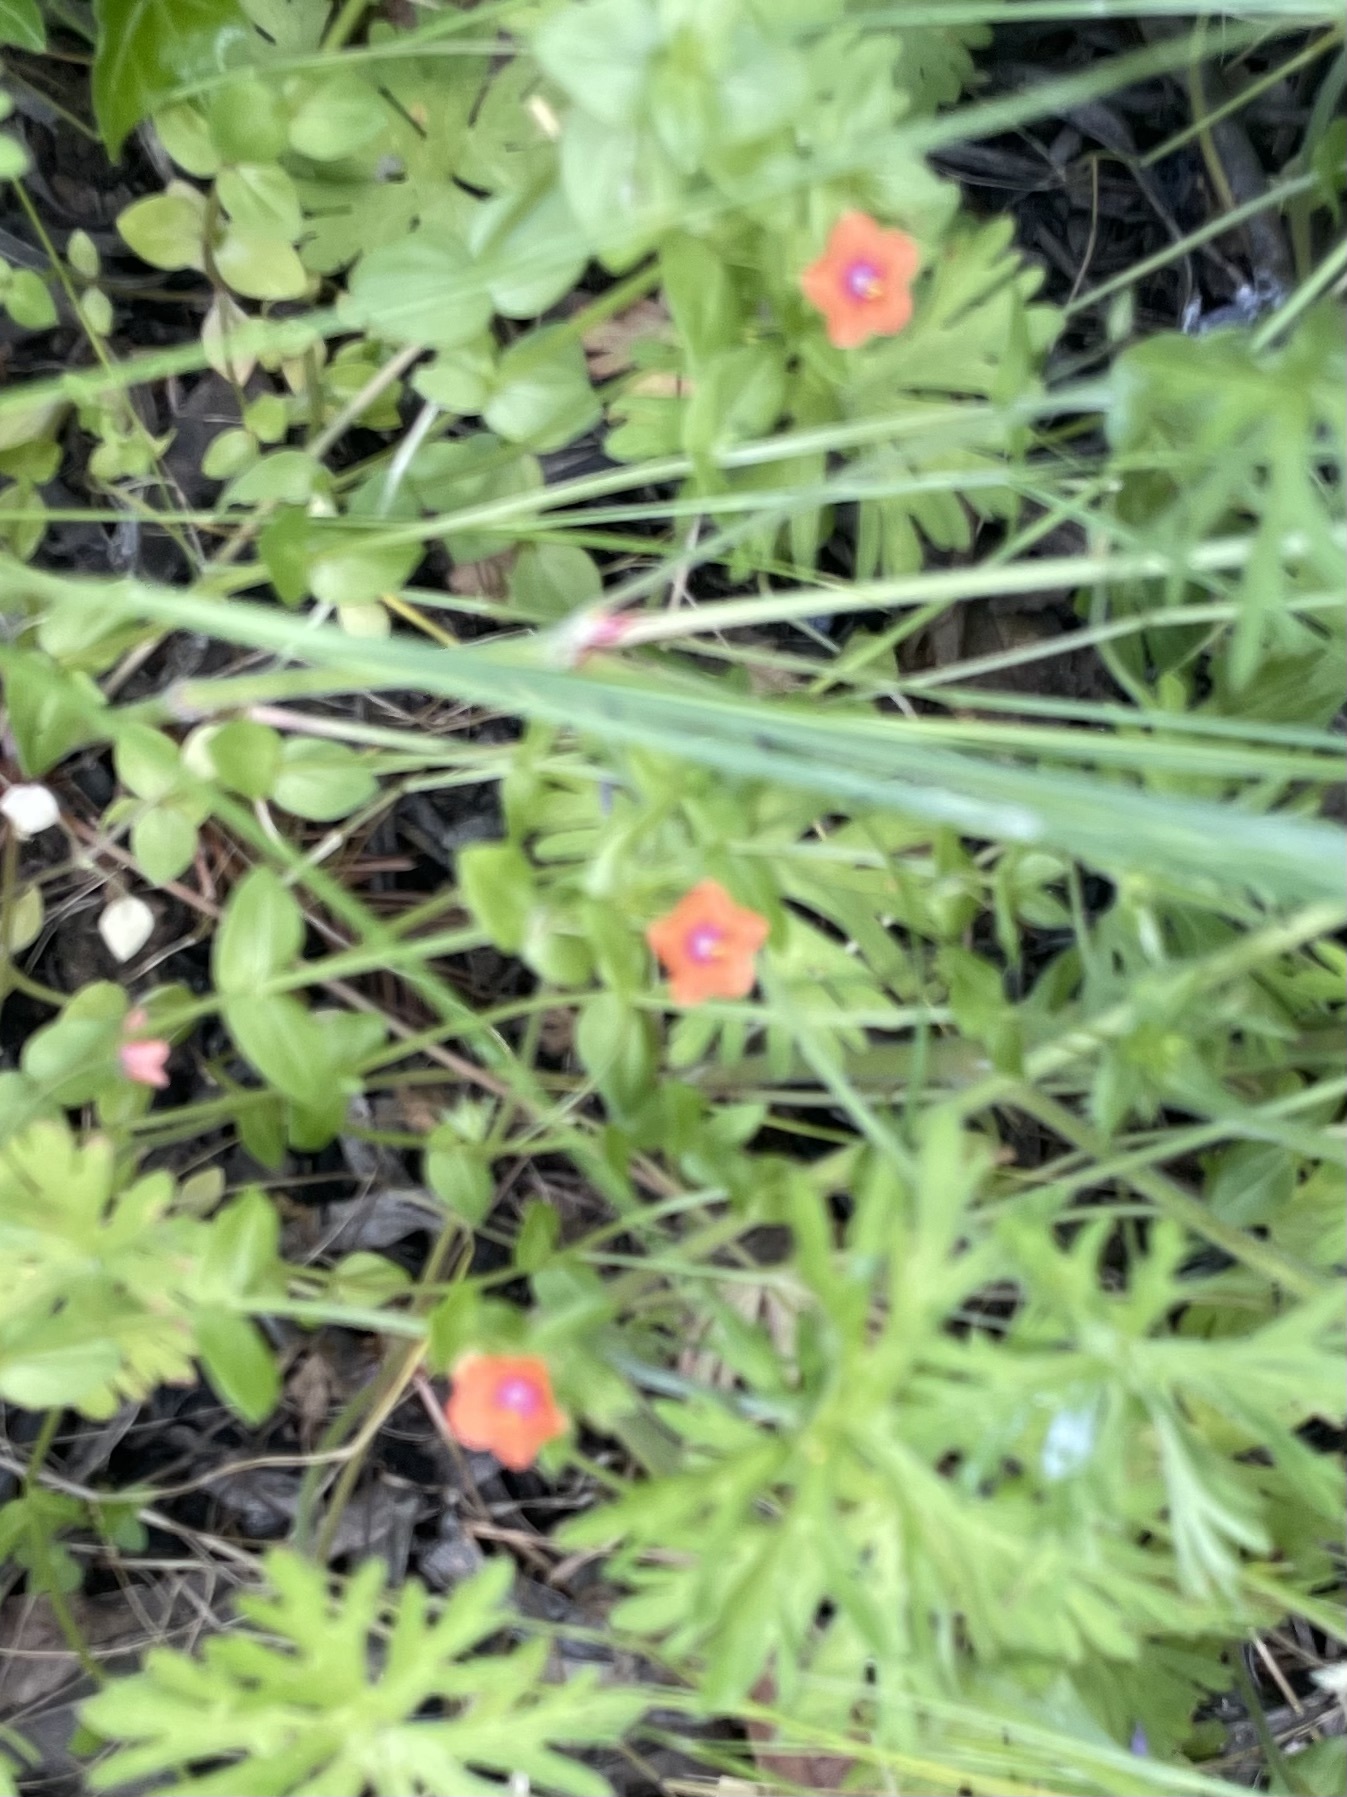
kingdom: Plantae
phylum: Tracheophyta
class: Magnoliopsida
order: Ericales
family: Primulaceae
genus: Lysimachia
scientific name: Lysimachia arvensis
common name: Scarlet pimpernel
